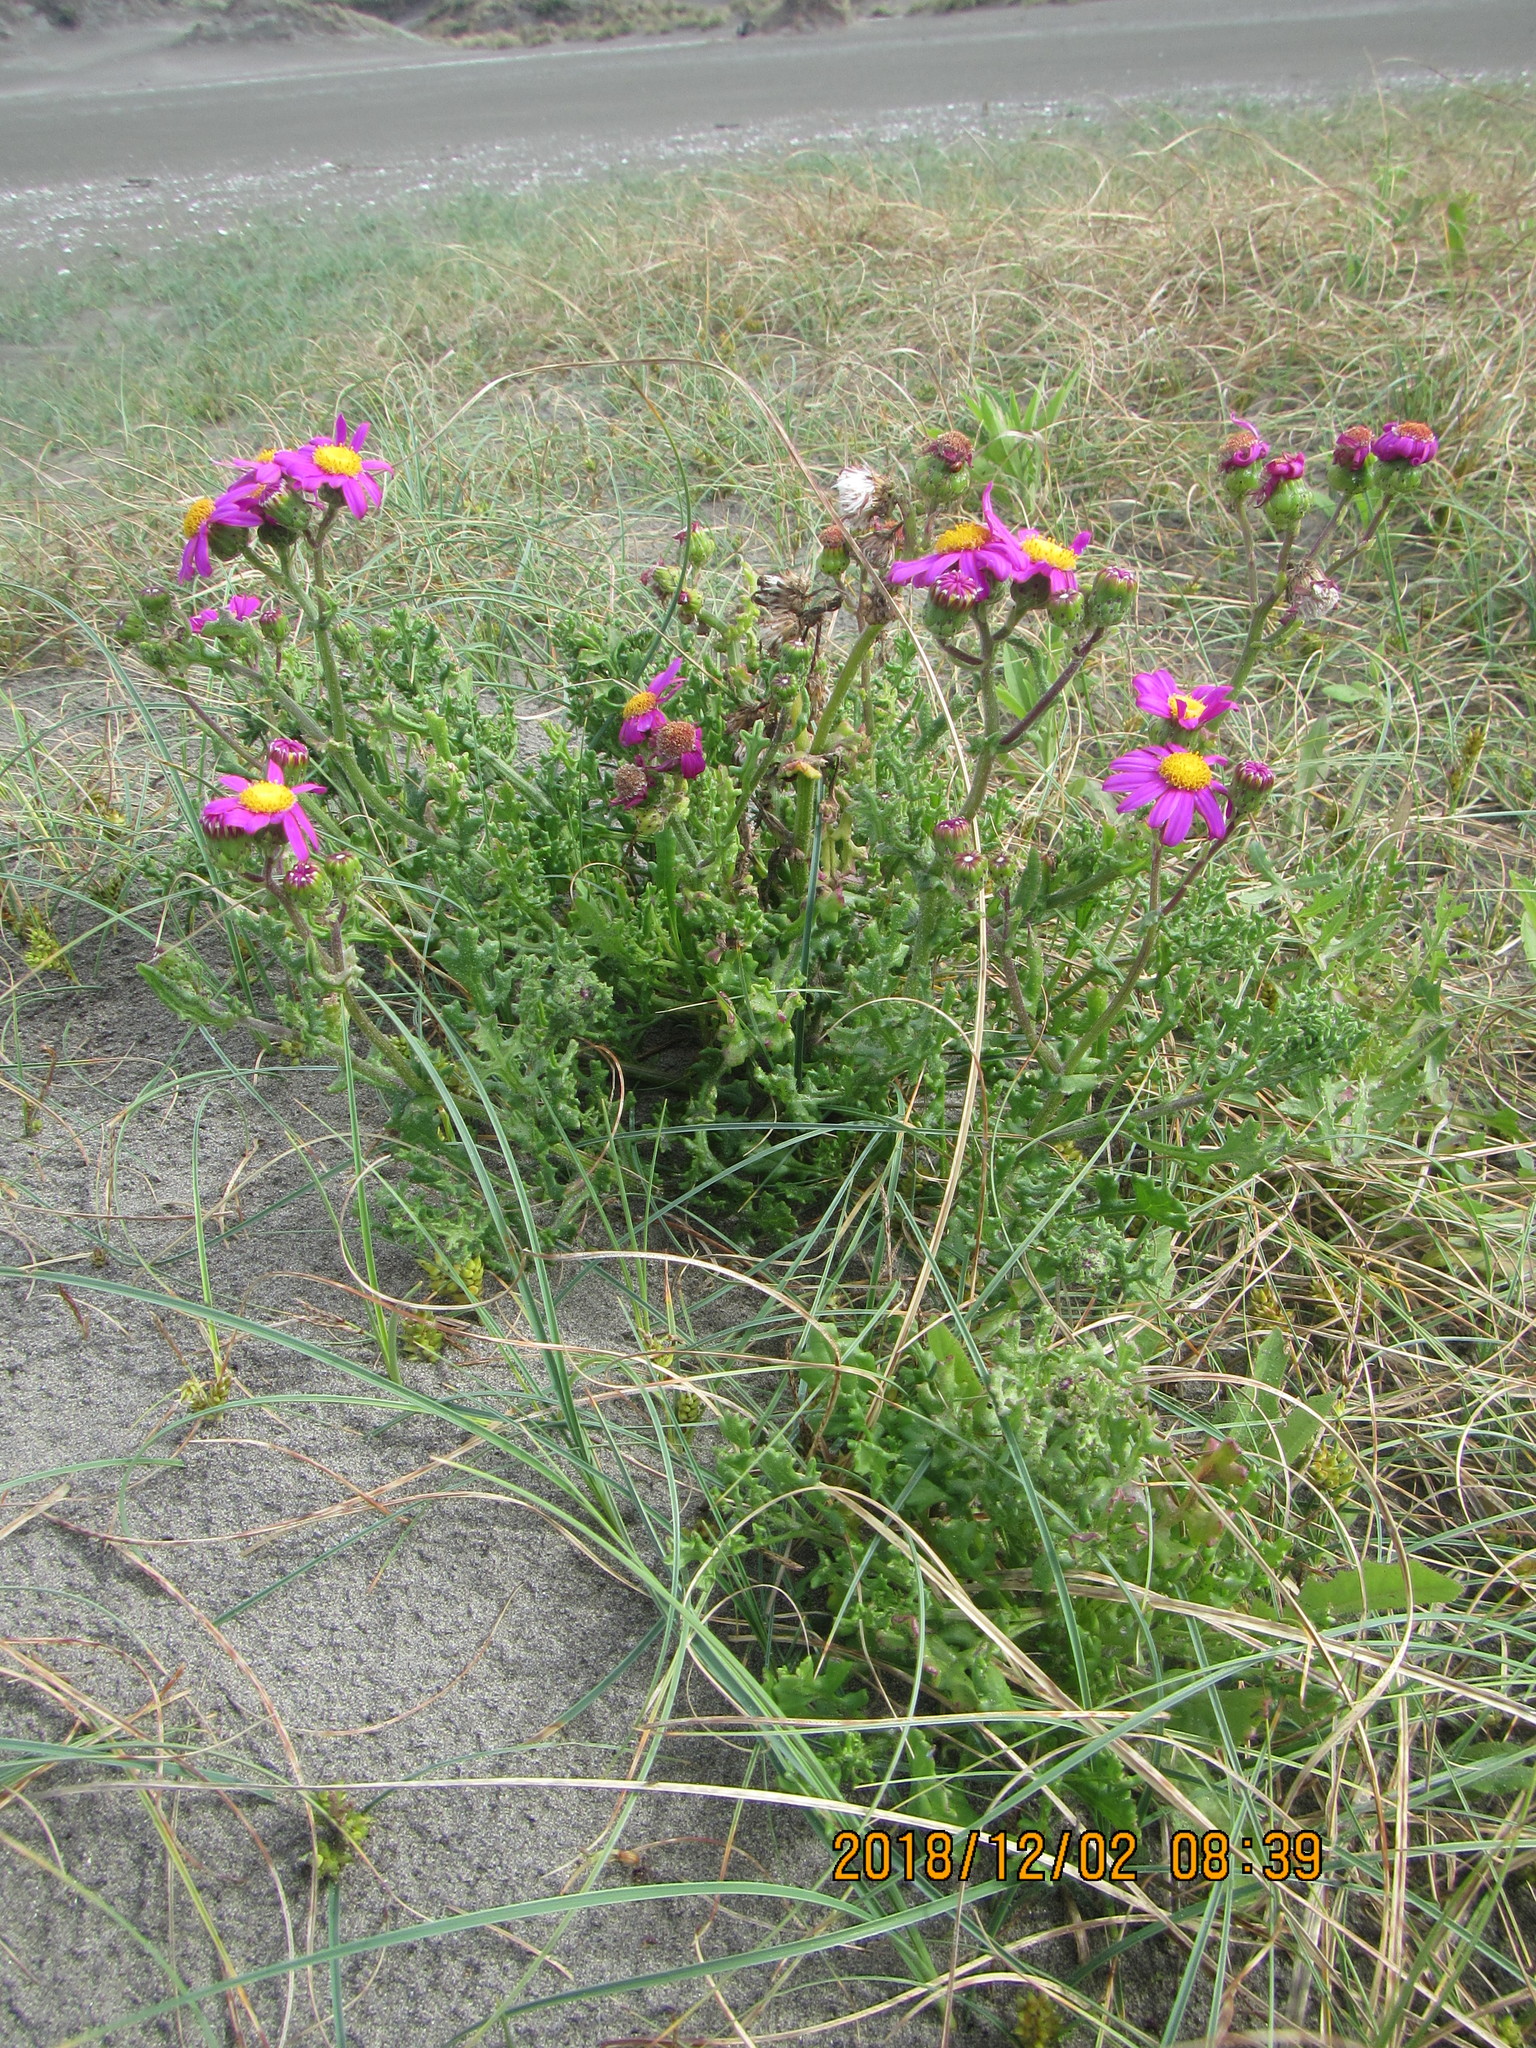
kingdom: Plantae
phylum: Tracheophyta
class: Magnoliopsida
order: Asterales
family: Asteraceae
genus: Senecio
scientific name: Senecio elegans
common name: Purple groundsel
